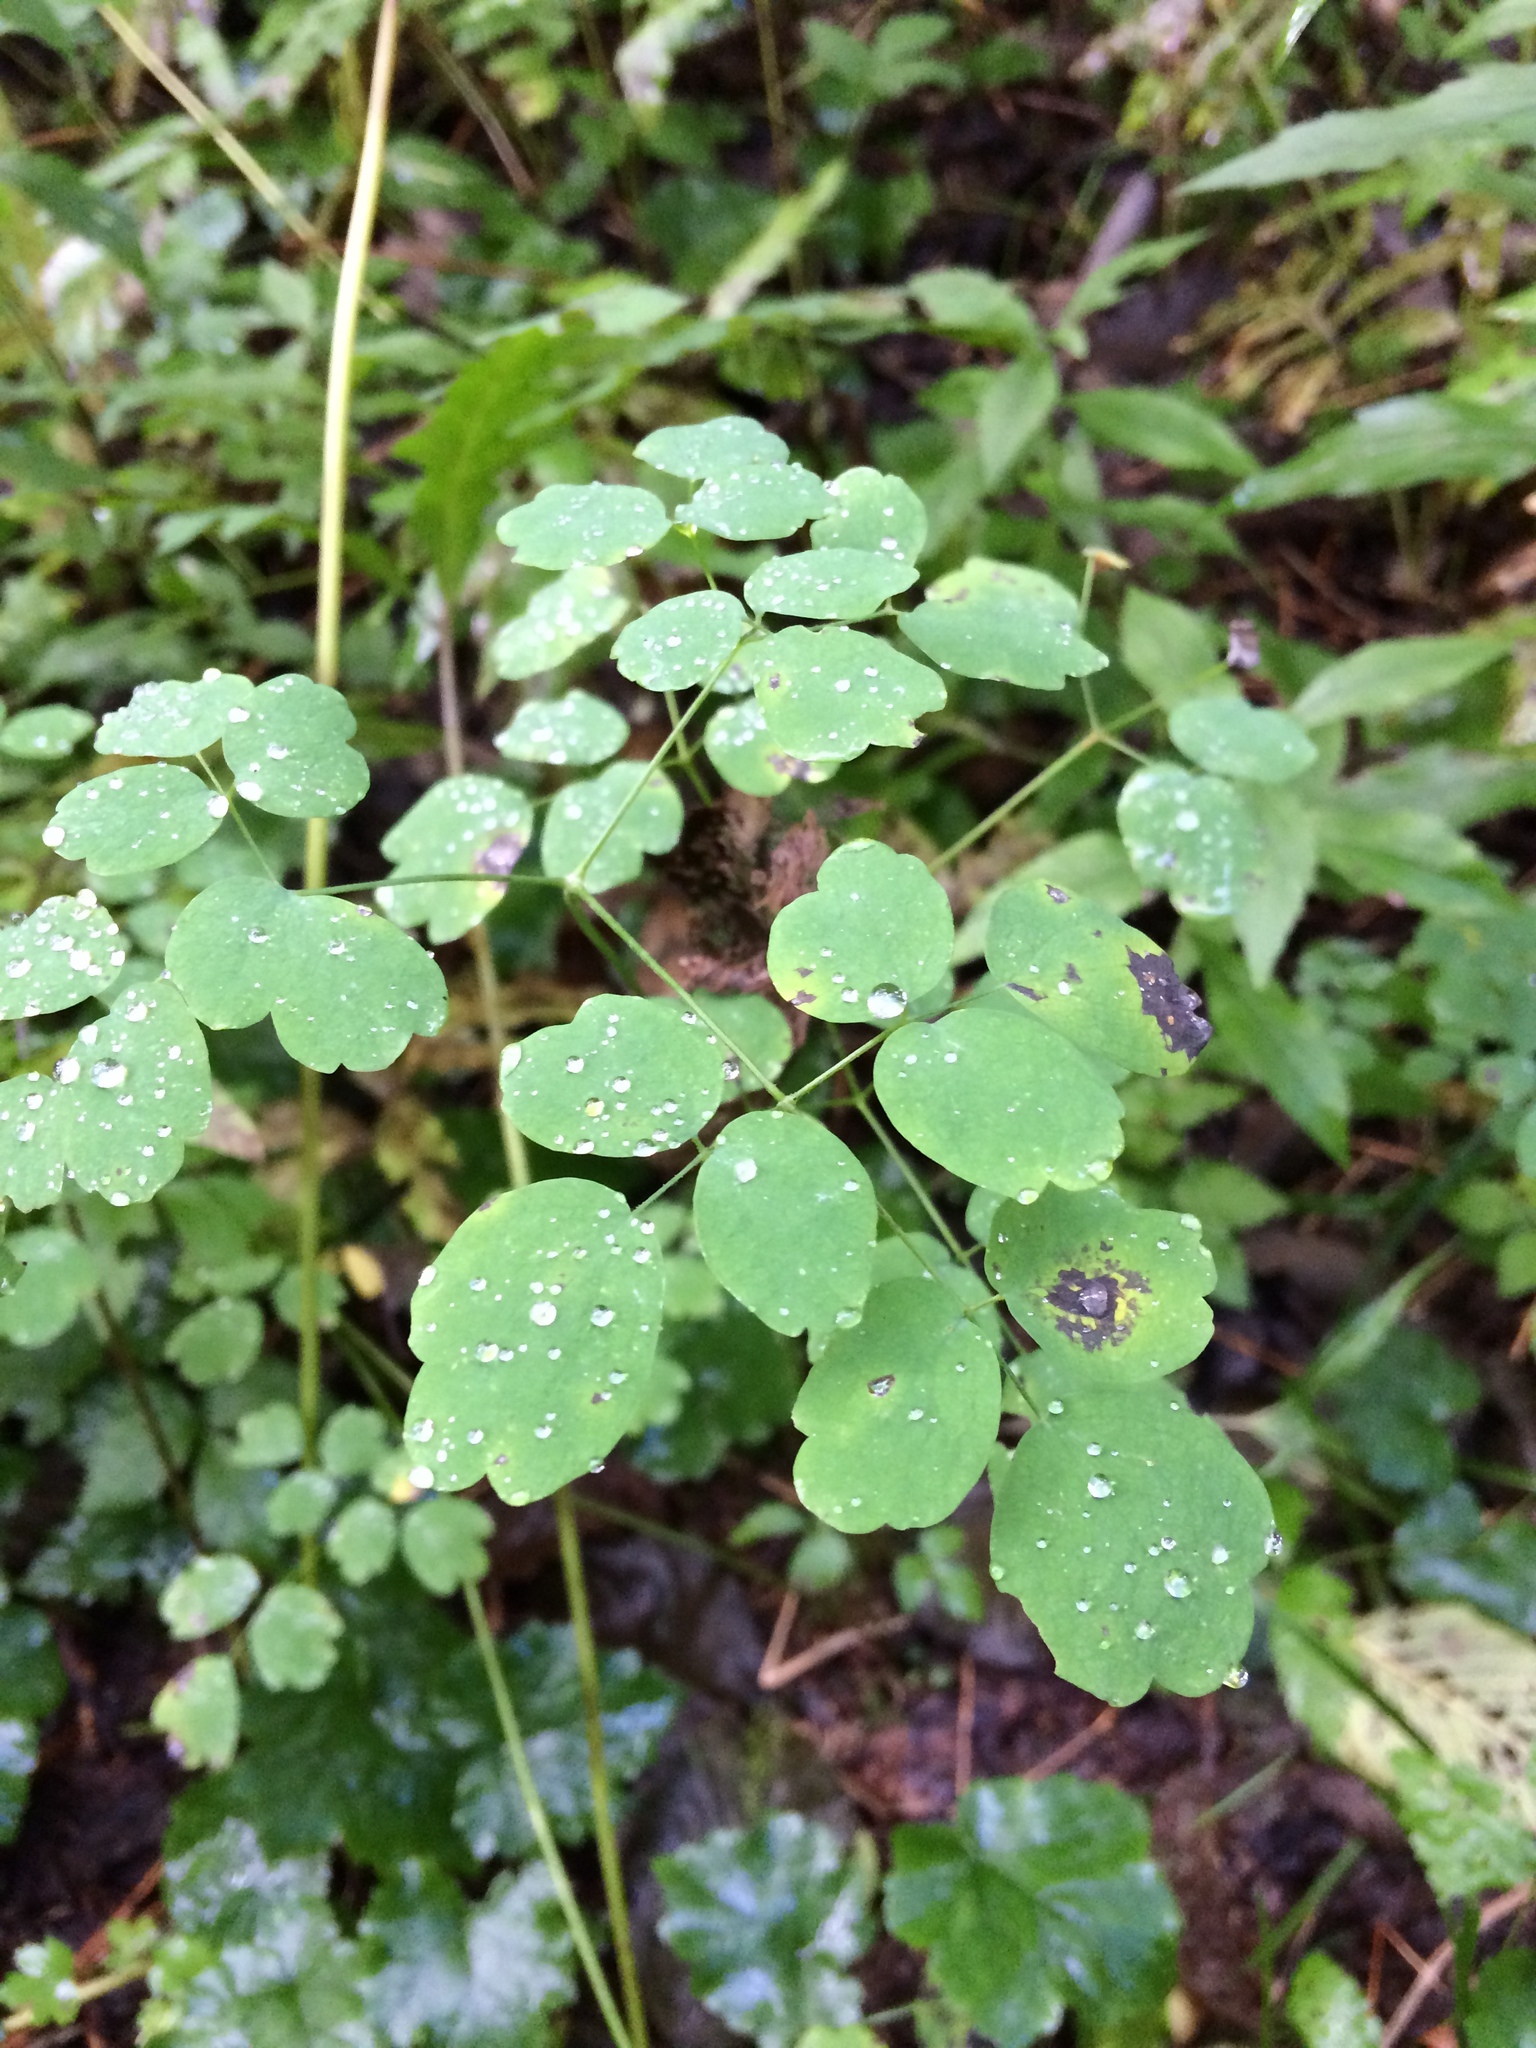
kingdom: Plantae
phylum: Tracheophyta
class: Magnoliopsida
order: Ranunculales
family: Ranunculaceae
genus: Thalictrum
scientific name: Thalictrum pubescens
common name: King-of-the-meadow
